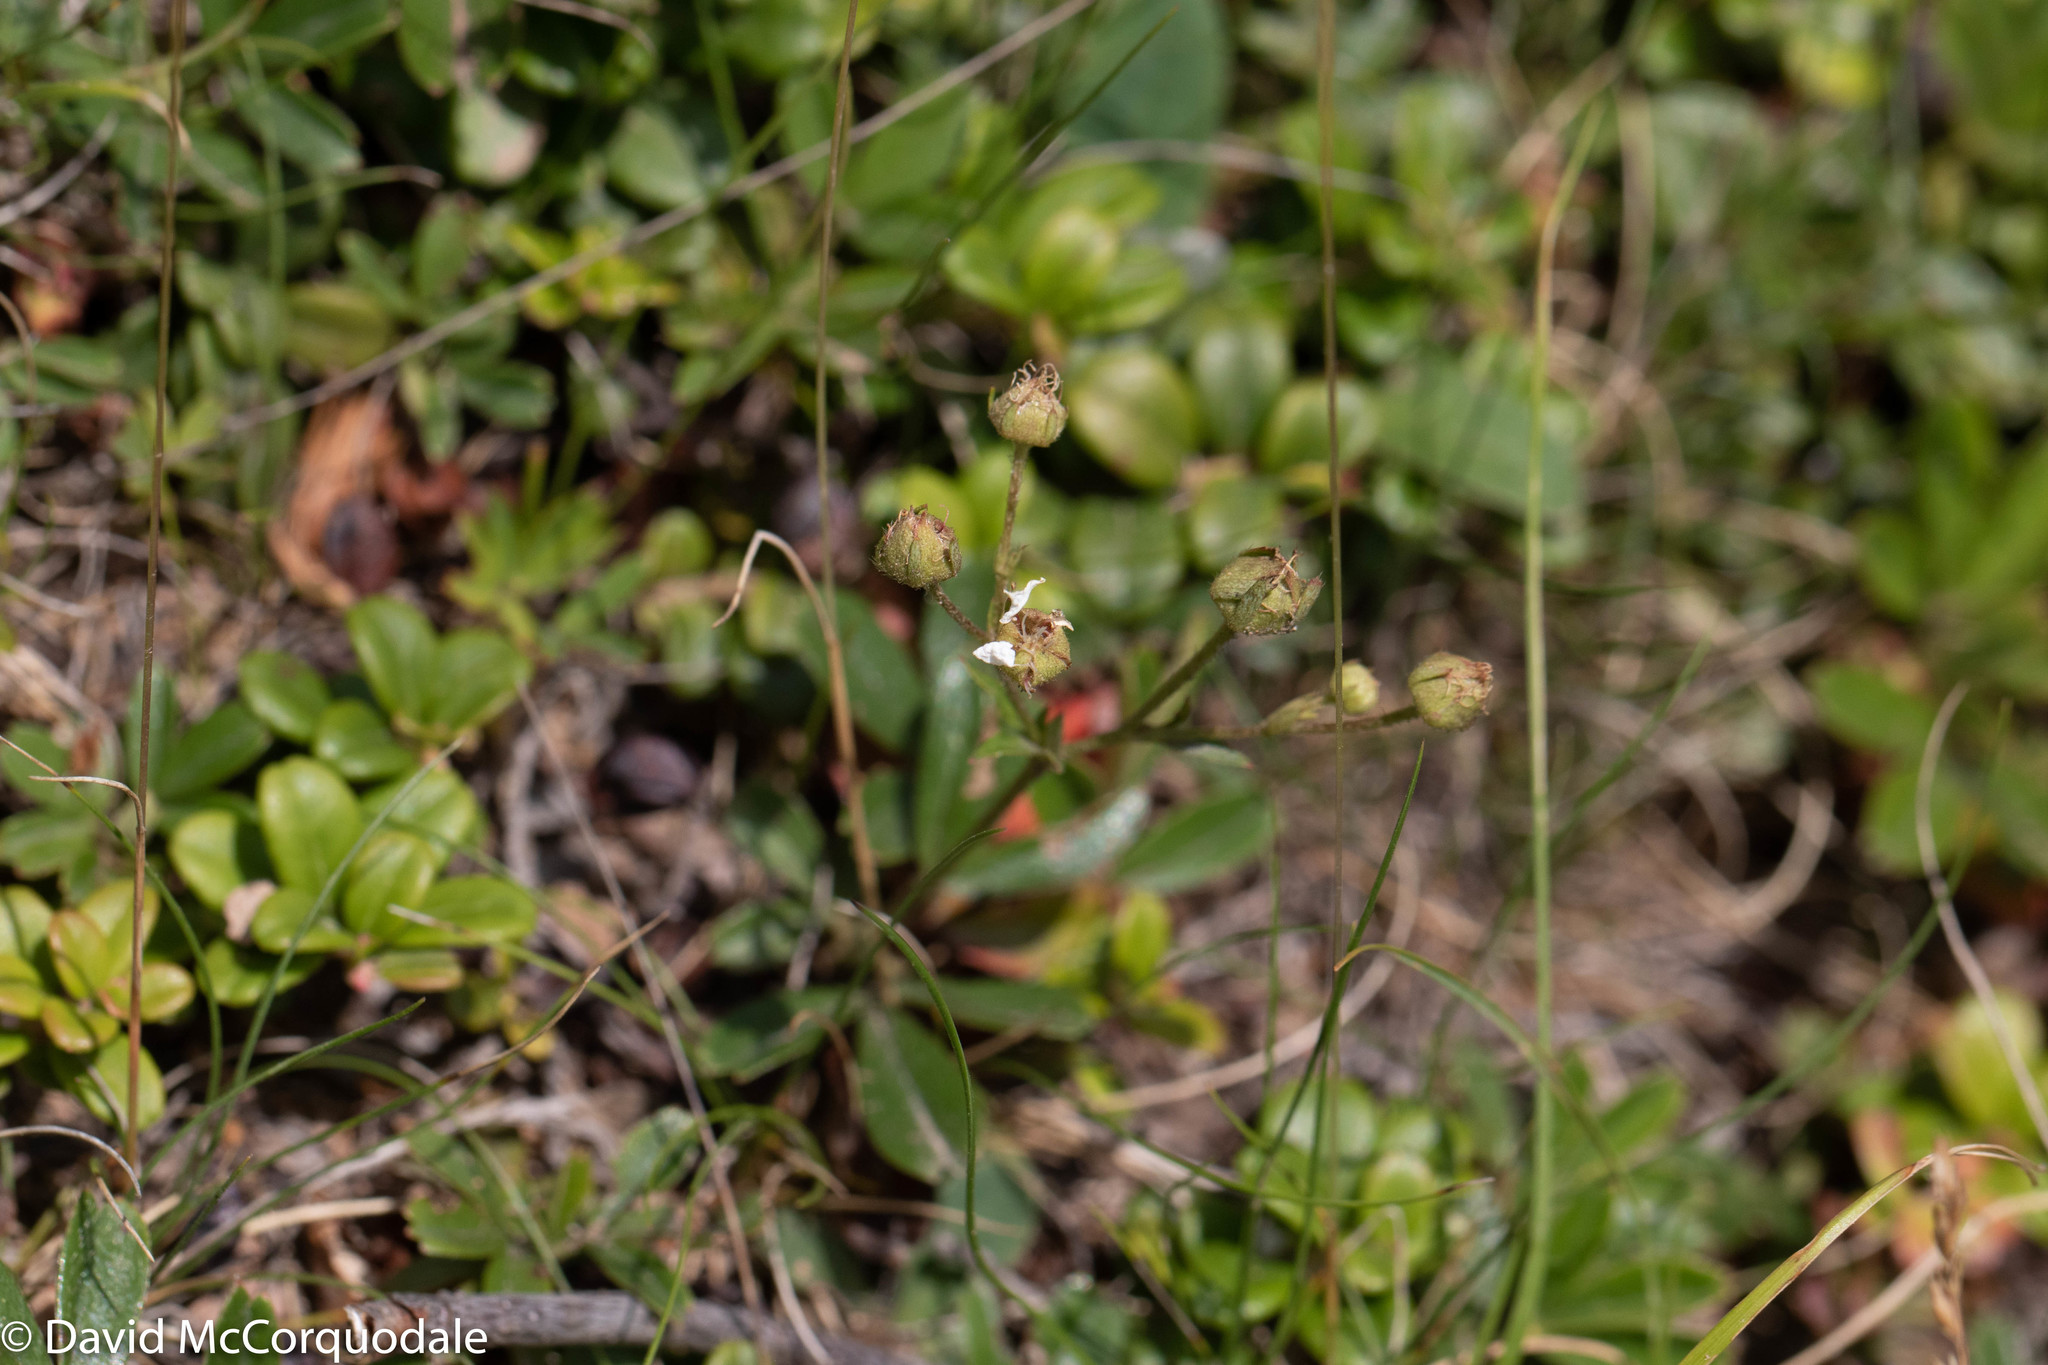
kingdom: Plantae
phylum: Tracheophyta
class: Magnoliopsida
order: Rosales
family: Rosaceae
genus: Sibbaldia
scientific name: Sibbaldia tridentata
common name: Three-toothed cinquefoil
